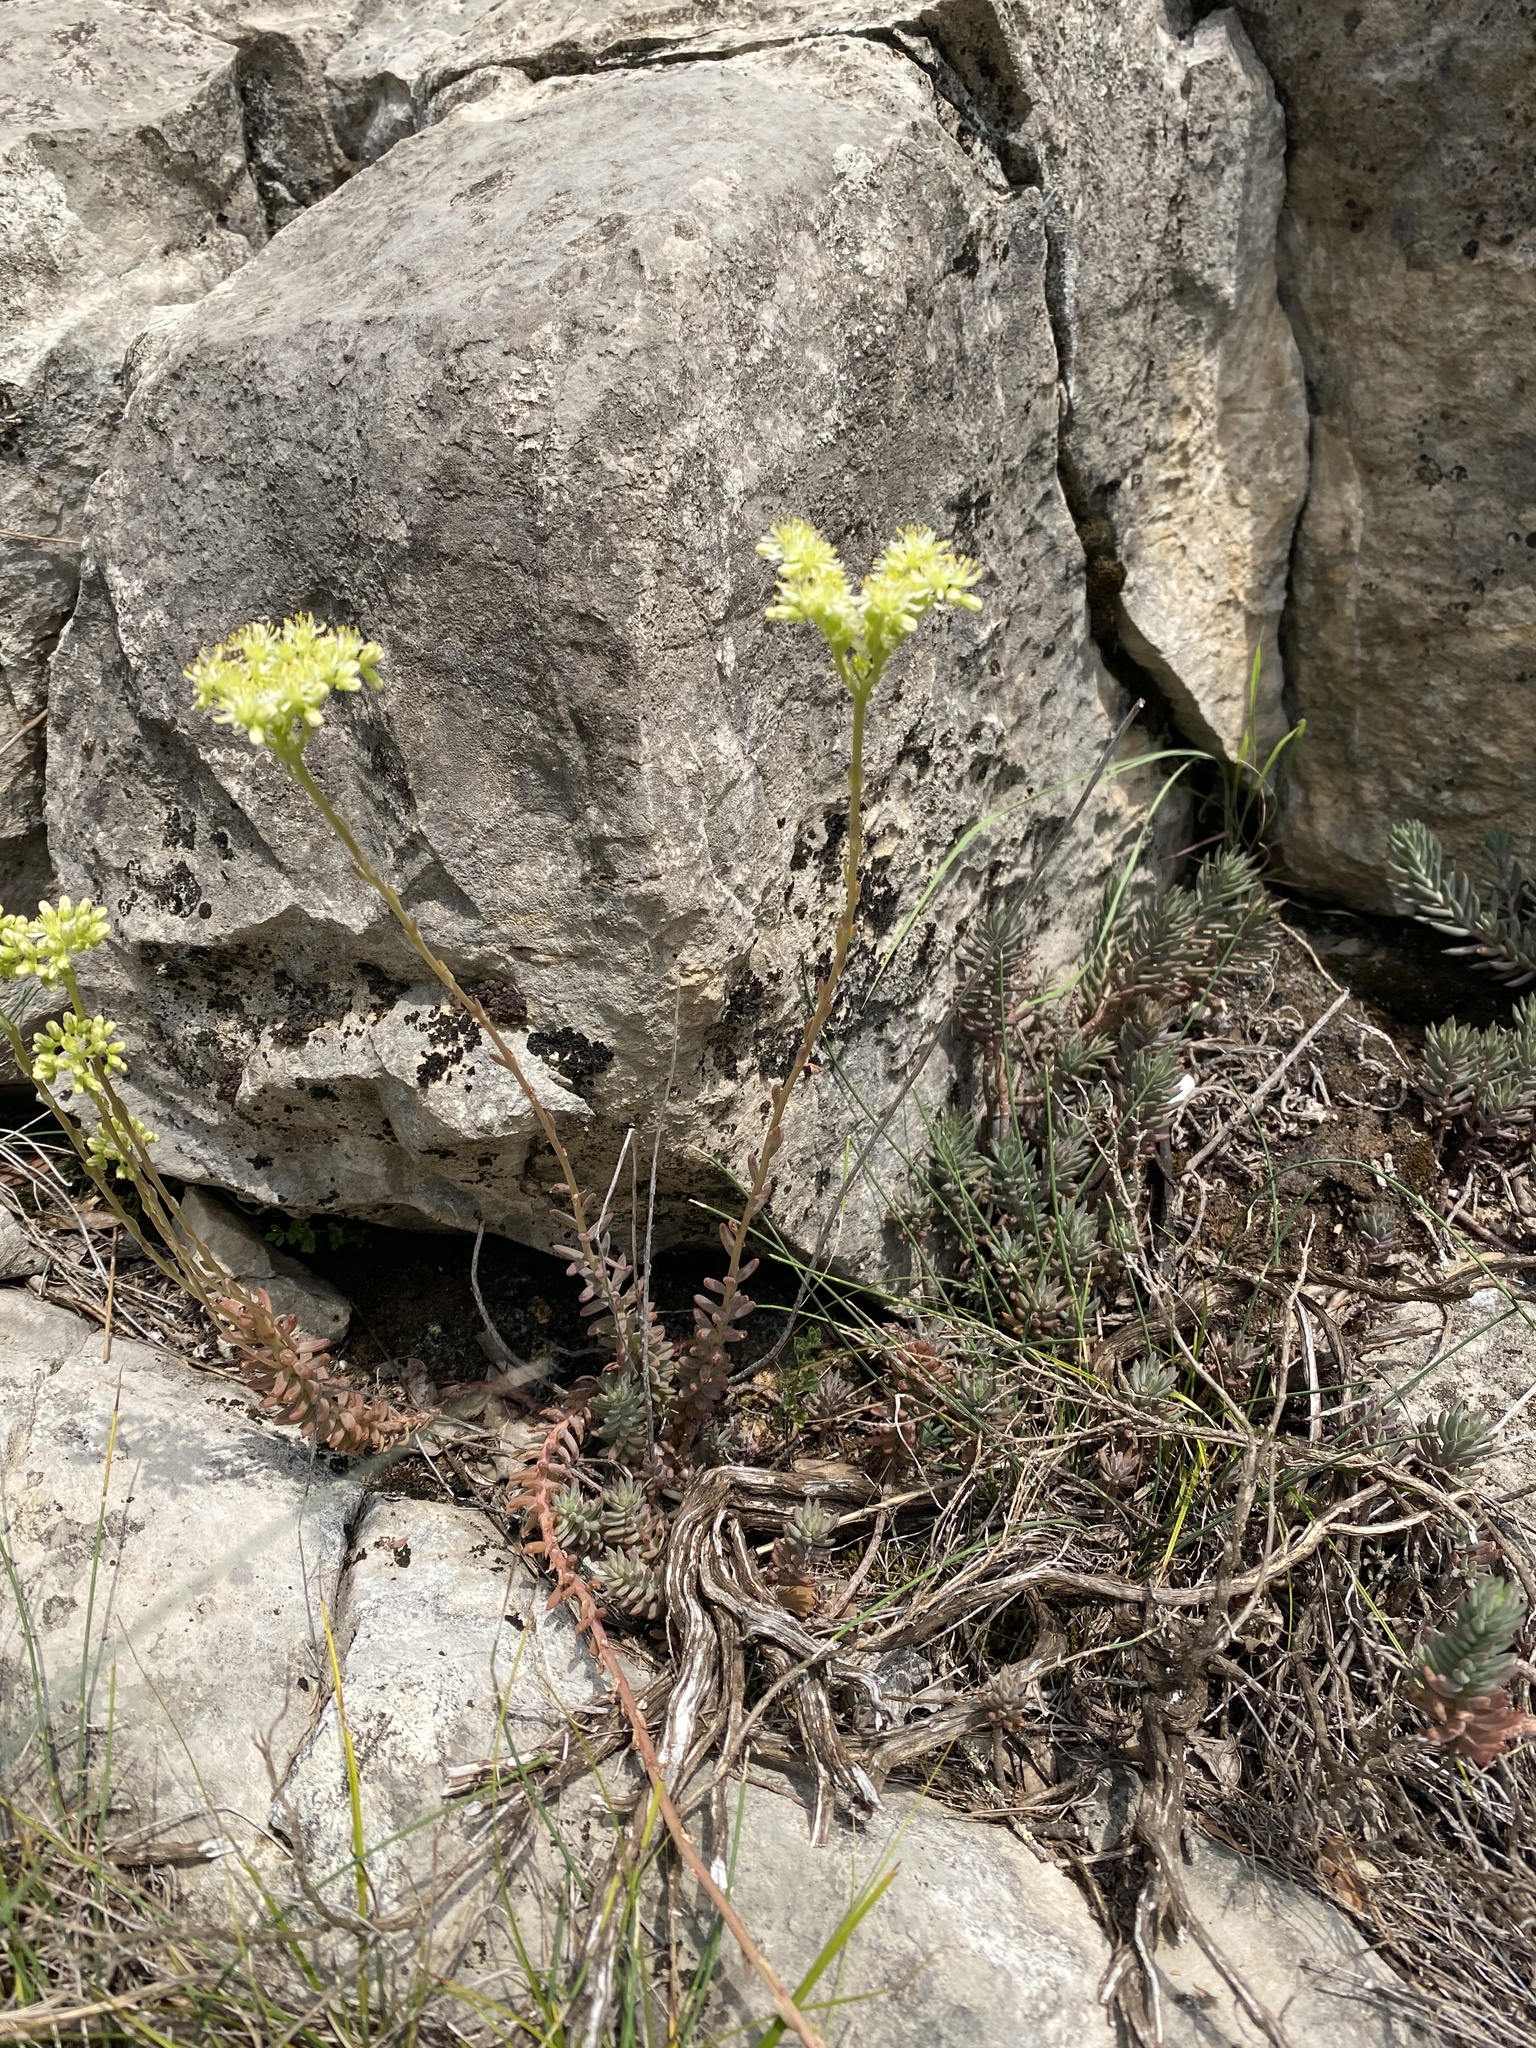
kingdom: Plantae
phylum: Tracheophyta
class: Magnoliopsida
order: Saxifragales
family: Crassulaceae
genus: Petrosedum
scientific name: Petrosedum sediforme
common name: Pale stonecrop
